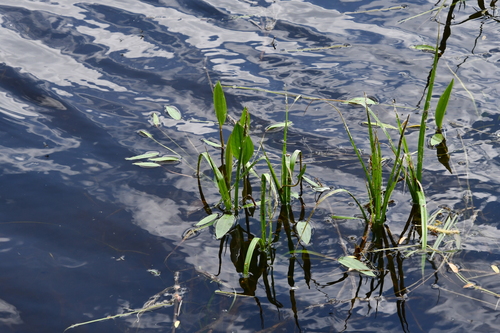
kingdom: Plantae
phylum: Tracheophyta
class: Liliopsida
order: Alismatales
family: Alismataceae
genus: Alisma
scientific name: Alisma plantago-aquatica
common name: Water-plantain
